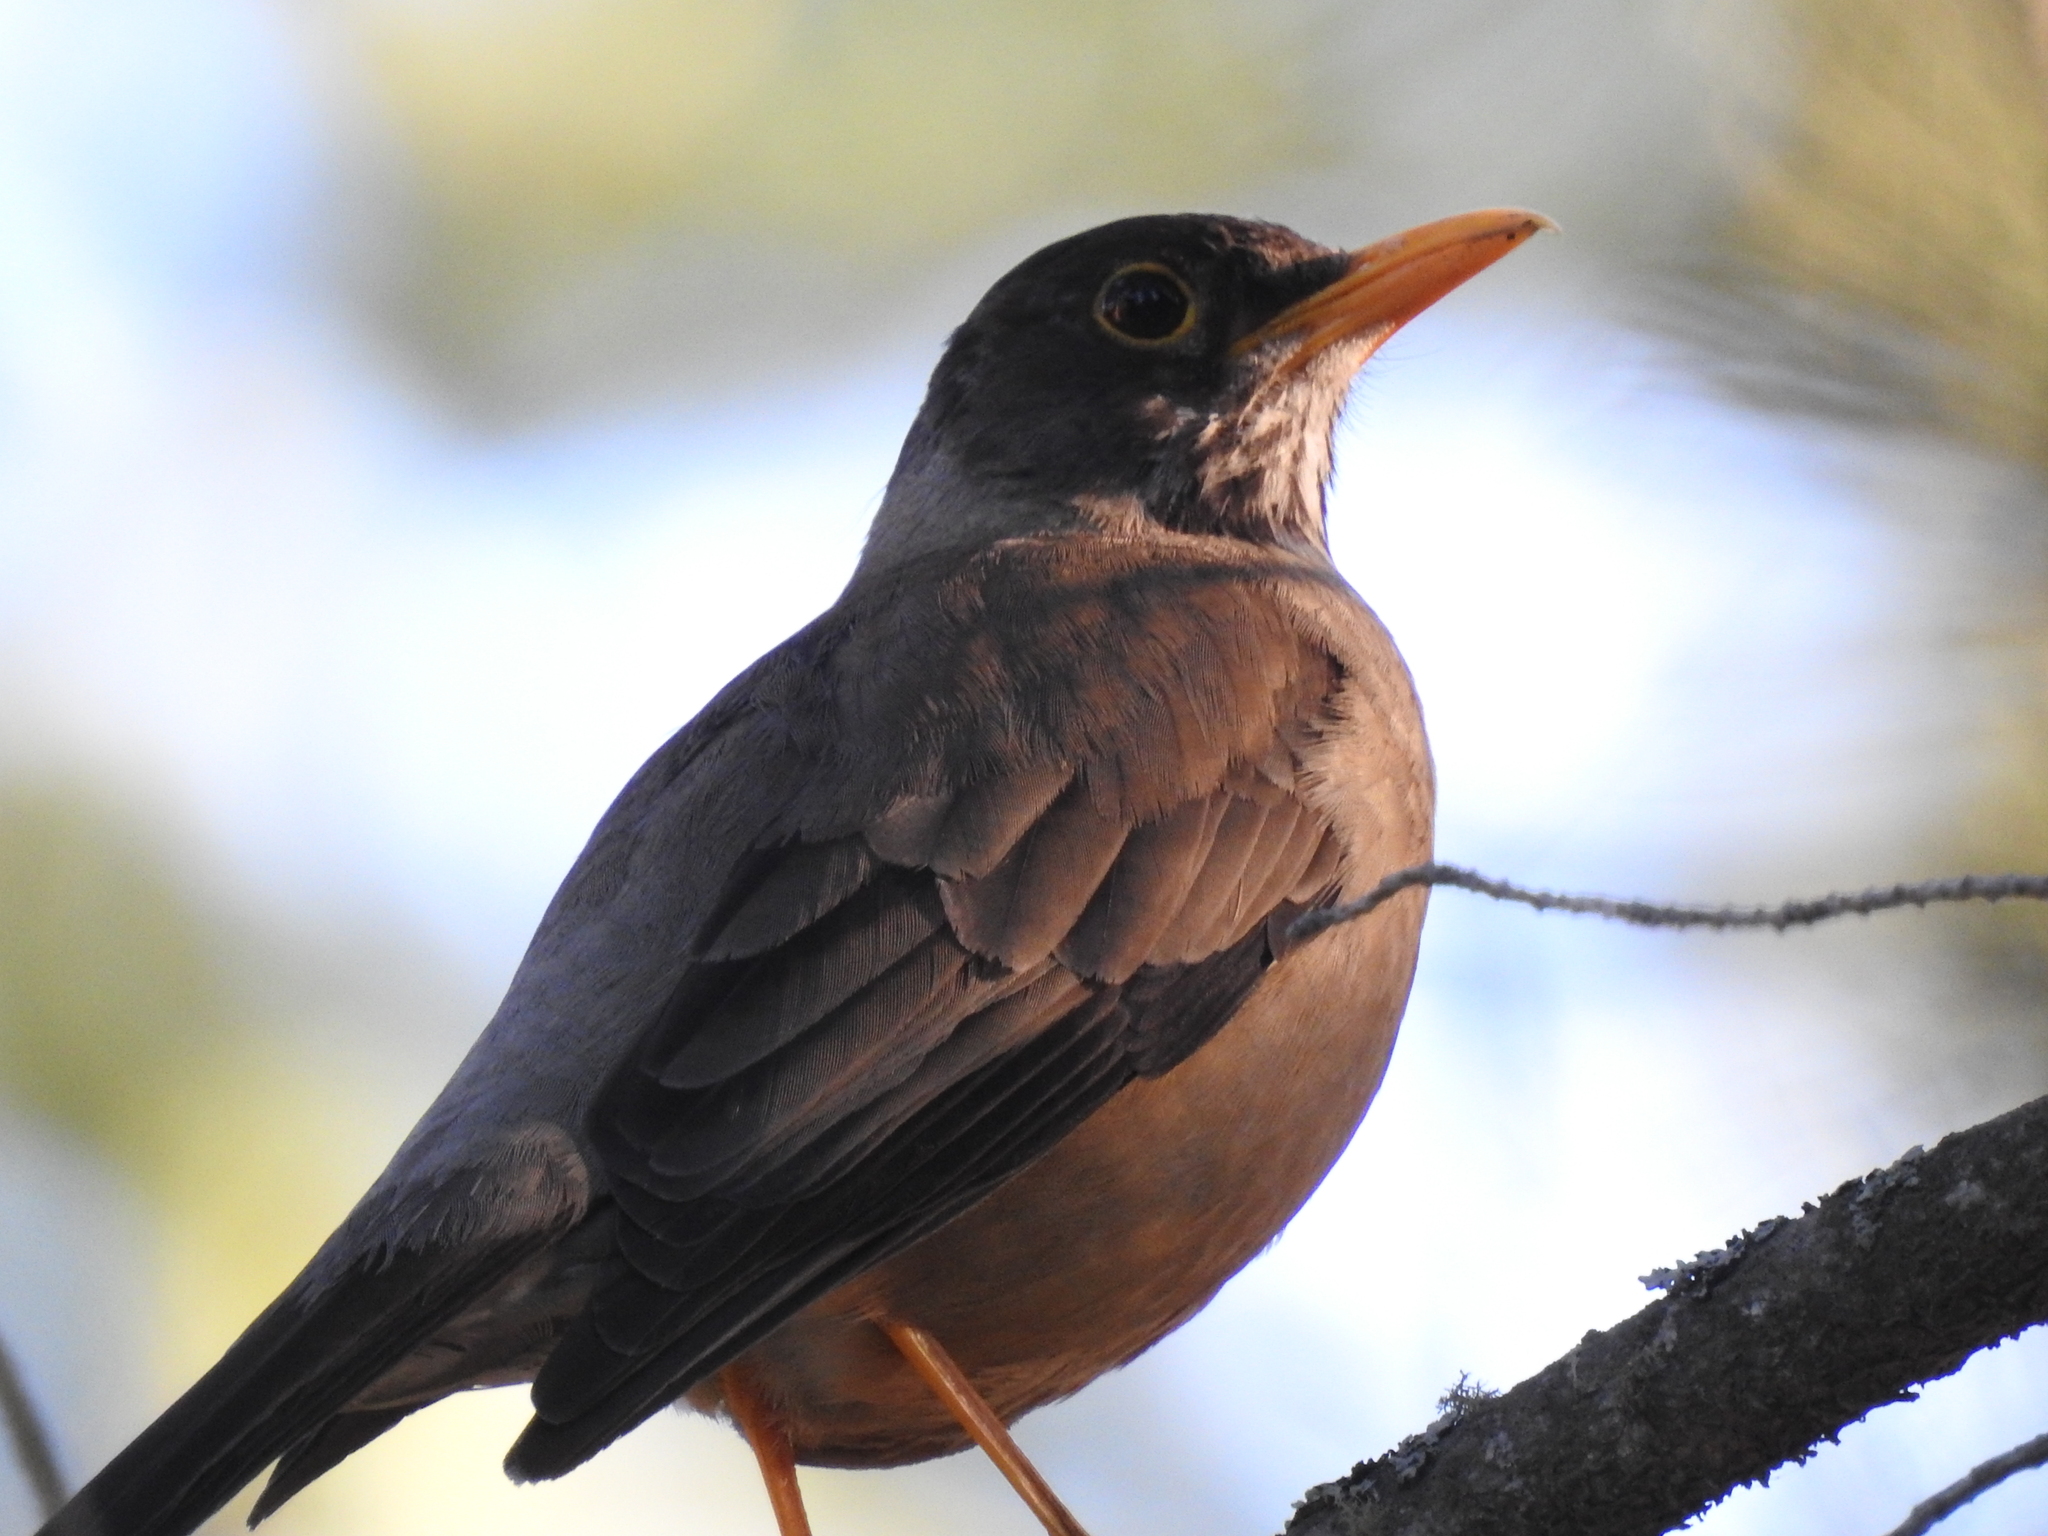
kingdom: Animalia
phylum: Chordata
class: Aves
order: Passeriformes
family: Turdidae
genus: Turdus
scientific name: Turdus falcklandii
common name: Austral thrush
